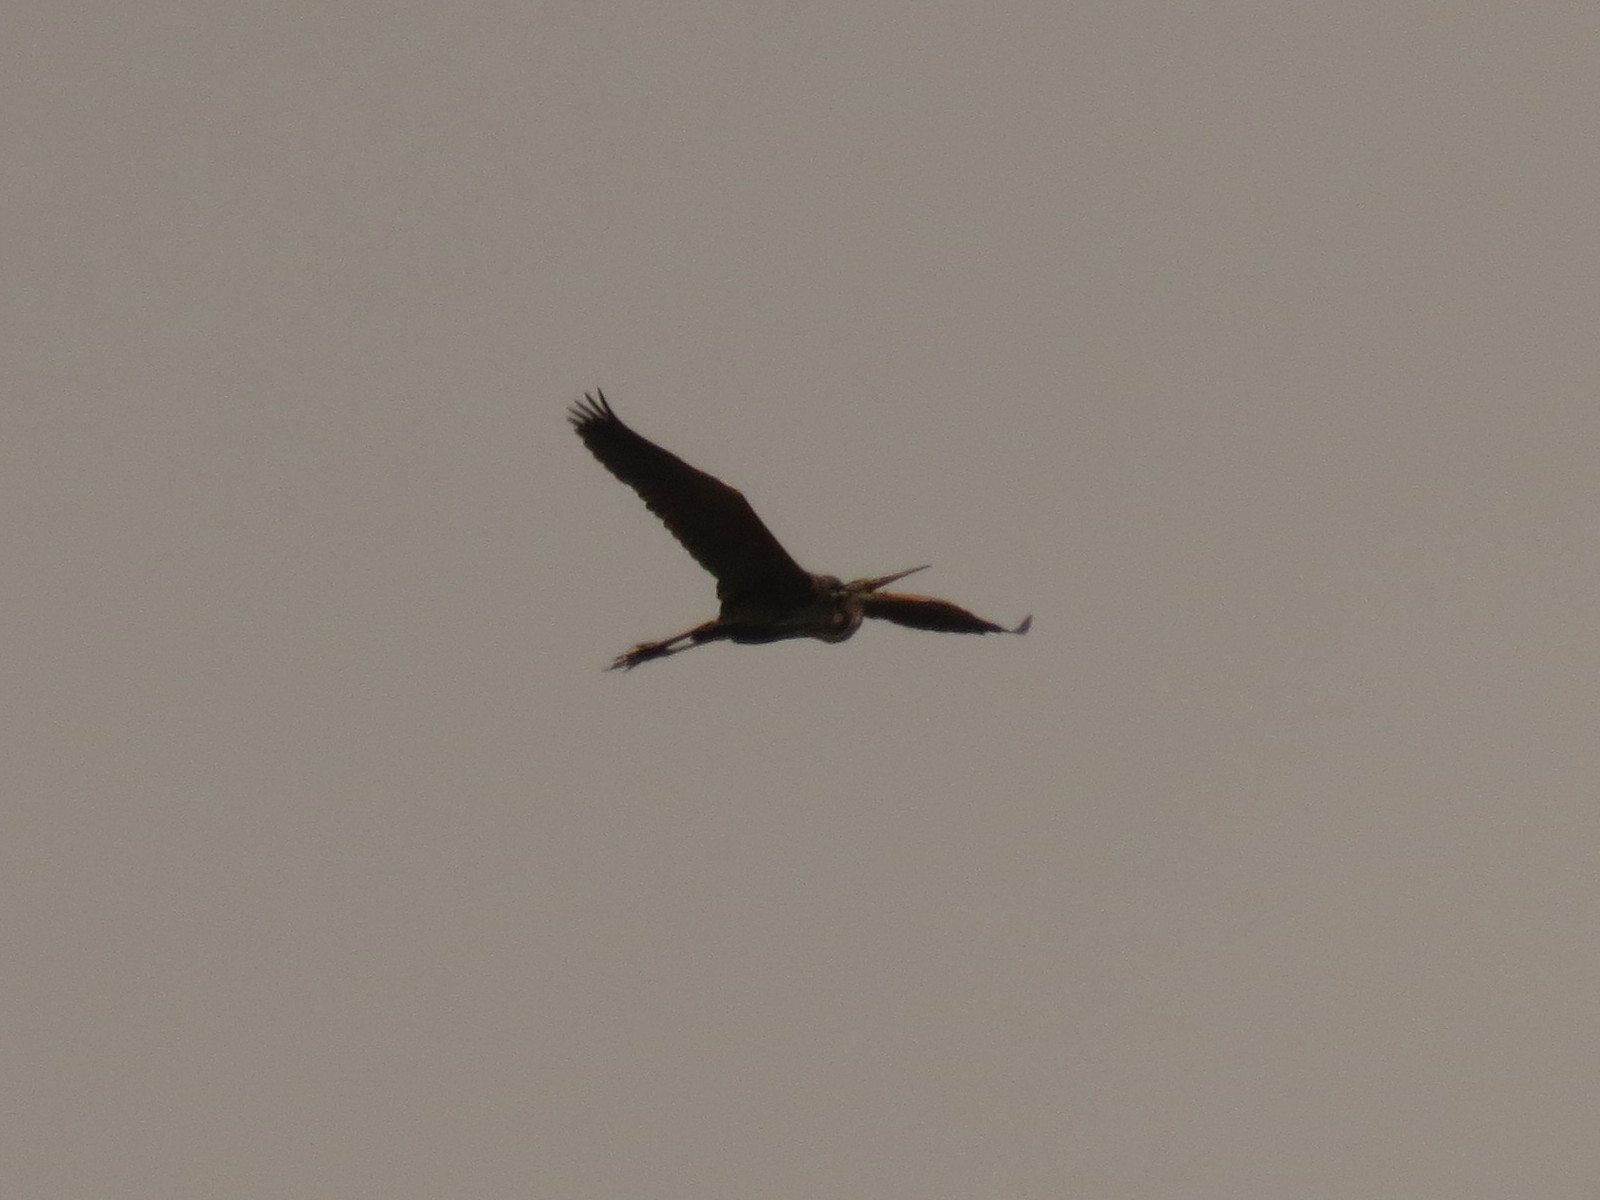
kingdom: Animalia
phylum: Chordata
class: Aves
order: Pelecaniformes
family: Ardeidae
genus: Ardea
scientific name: Ardea purpurea
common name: Purple heron
